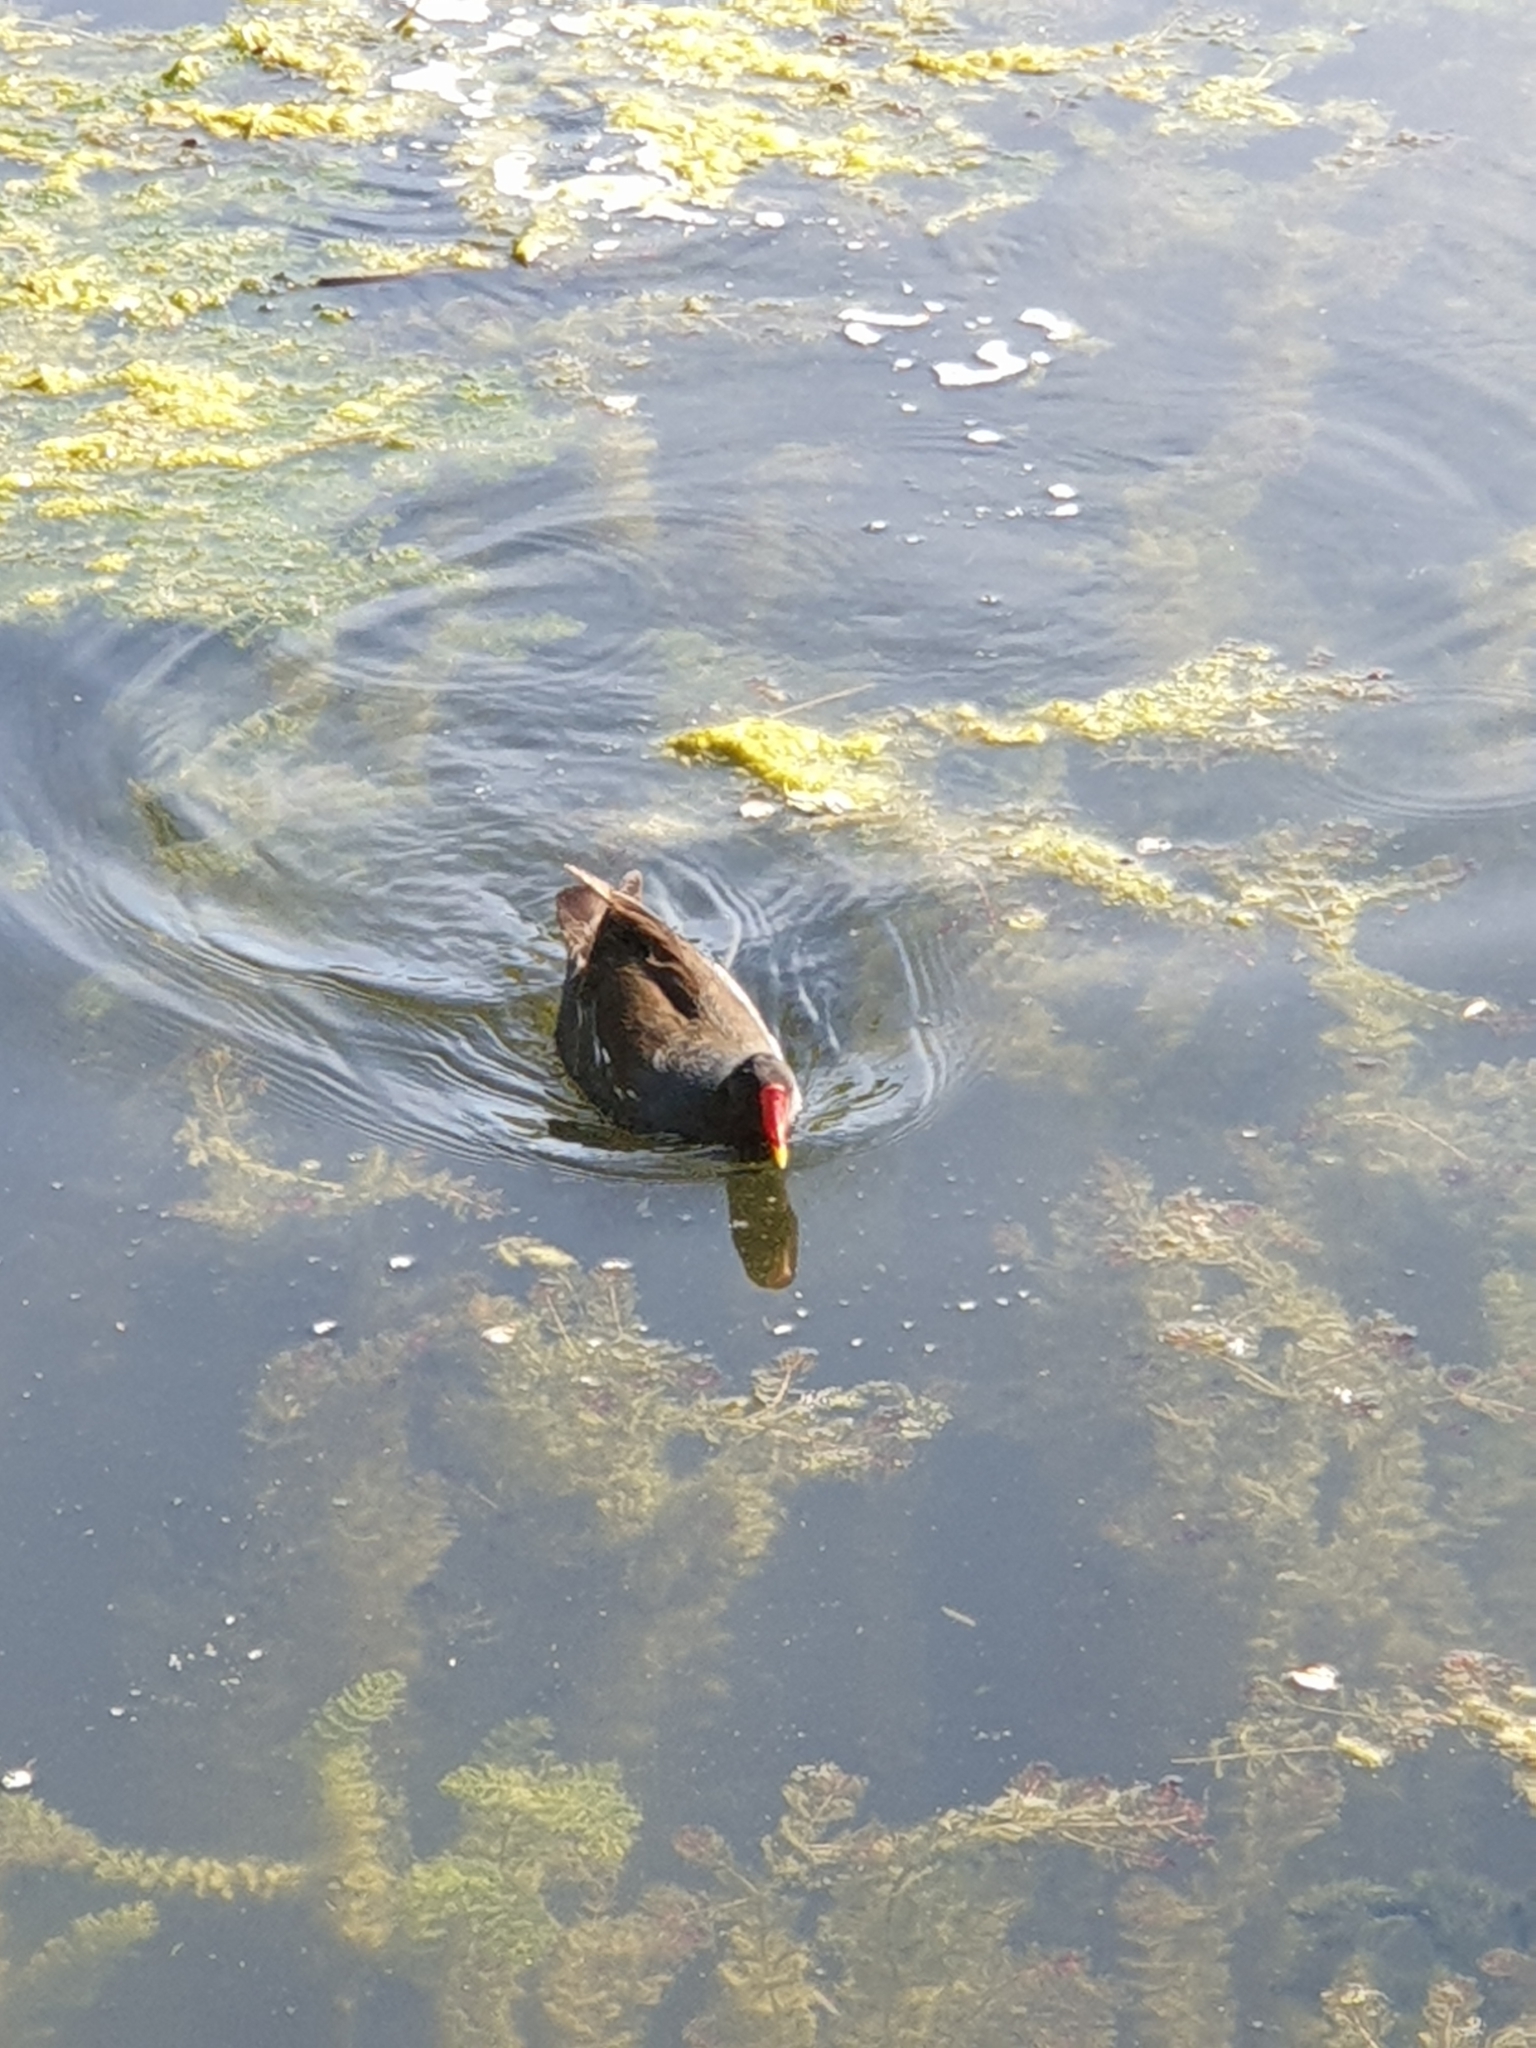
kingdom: Animalia
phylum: Chordata
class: Aves
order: Gruiformes
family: Rallidae
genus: Gallinula
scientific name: Gallinula chloropus
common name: Common moorhen
